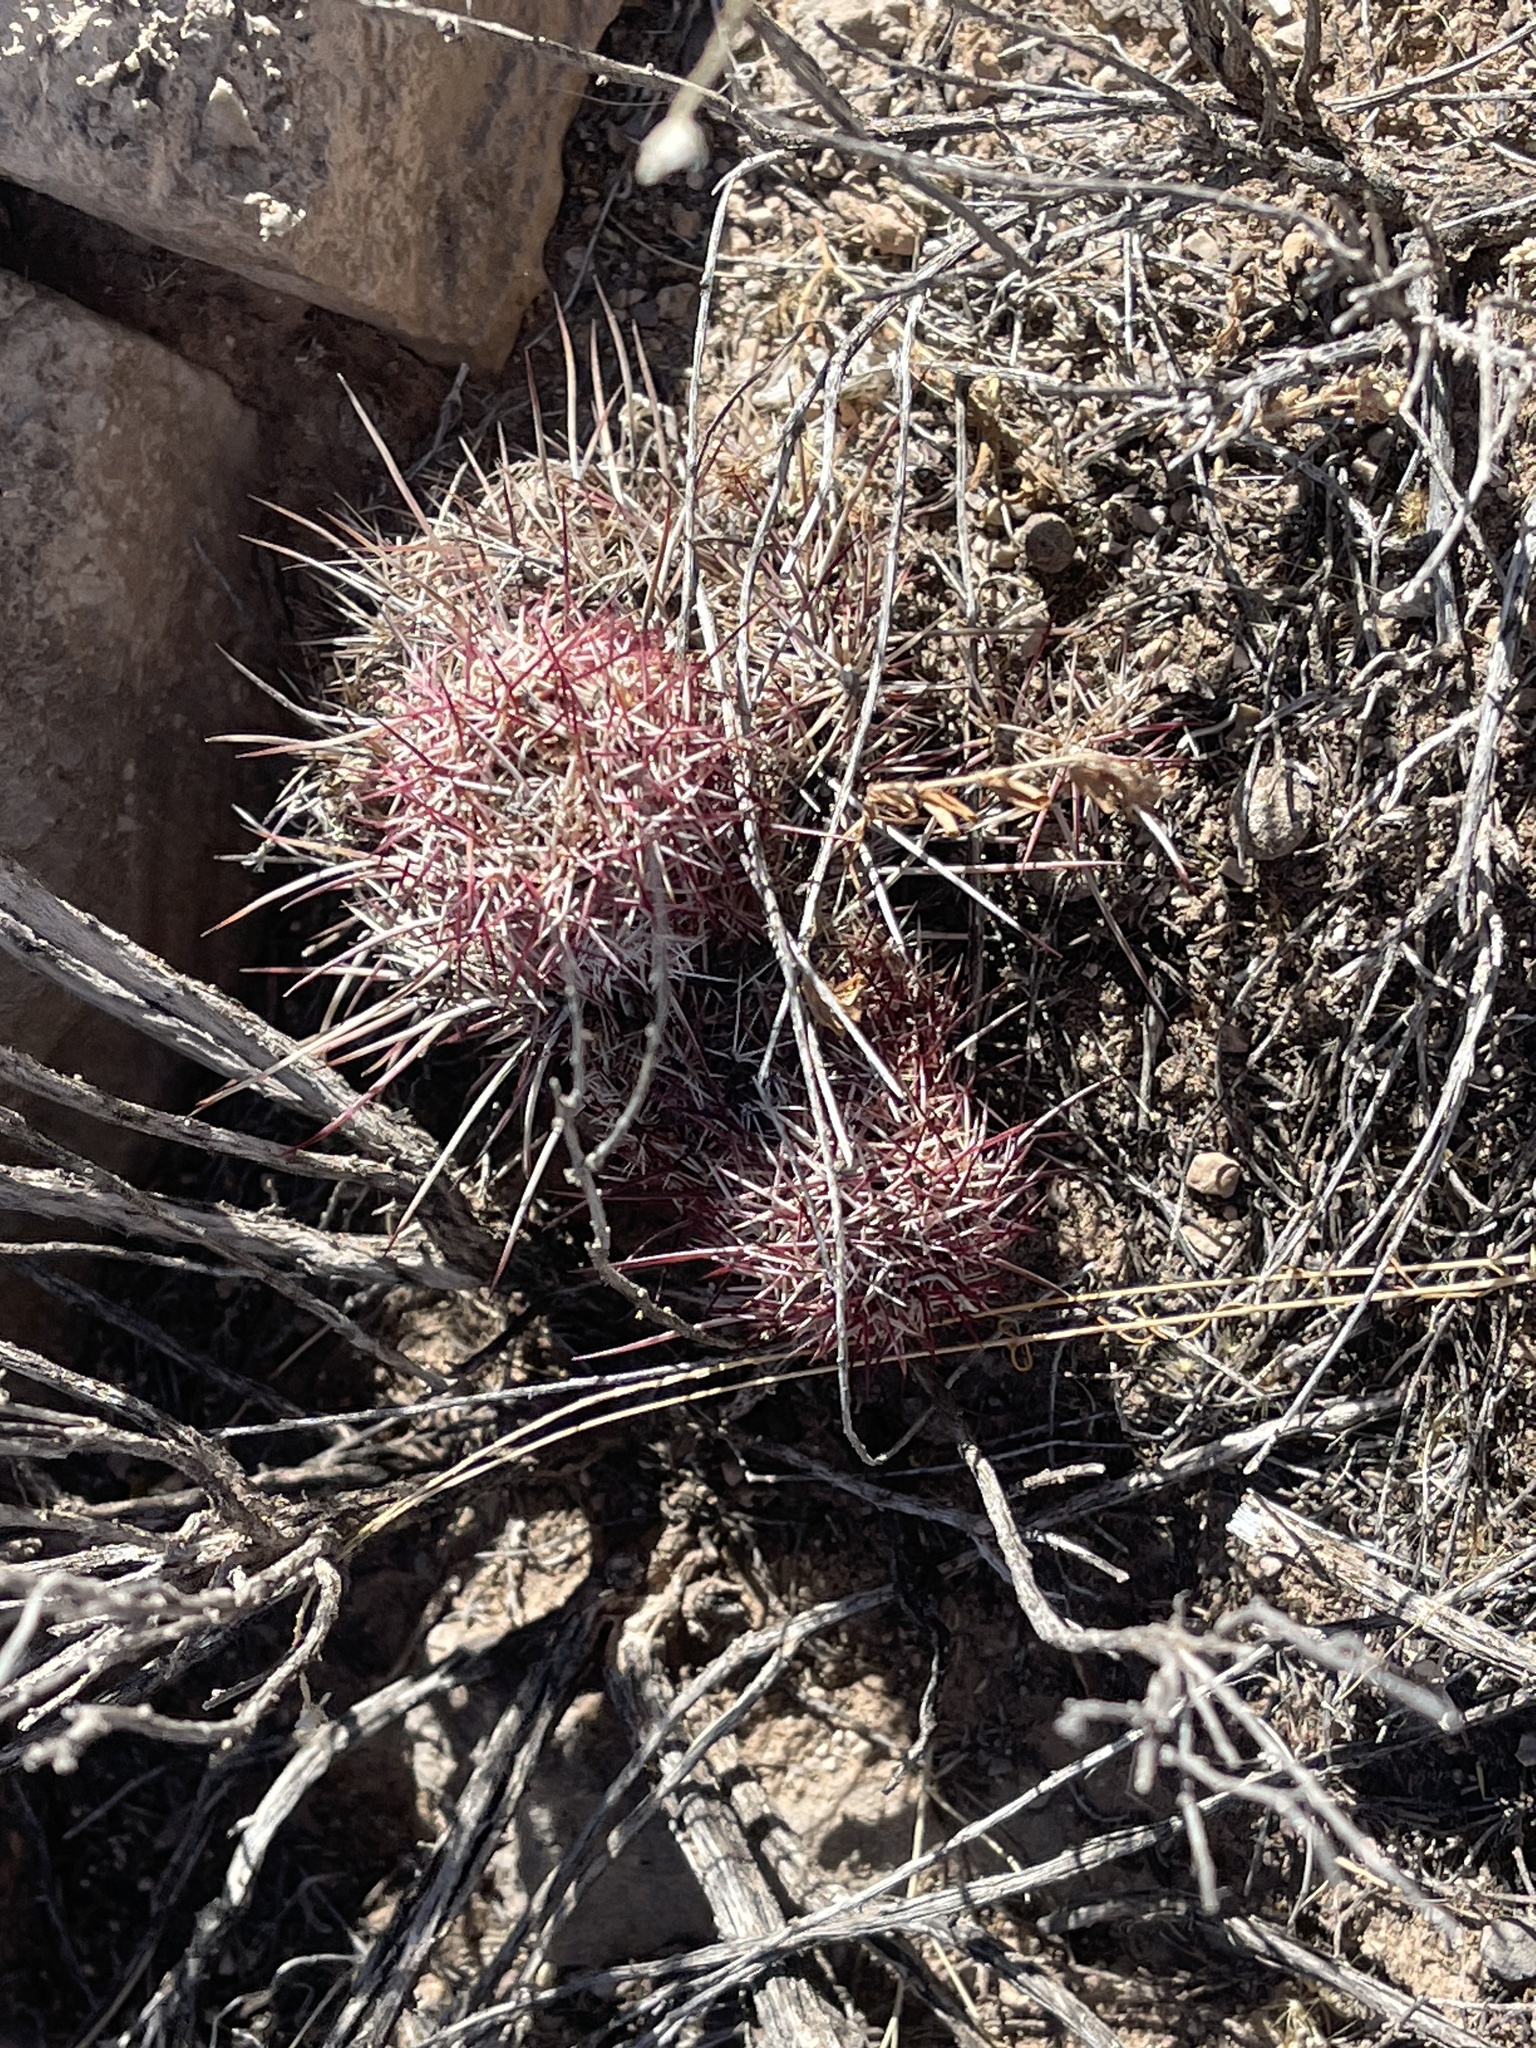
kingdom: Plantae
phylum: Tracheophyta
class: Magnoliopsida
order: Caryophyllales
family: Cactaceae
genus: Echinocereus
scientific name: Echinocereus viridiflorus
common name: Nylon hedgehog cactus
